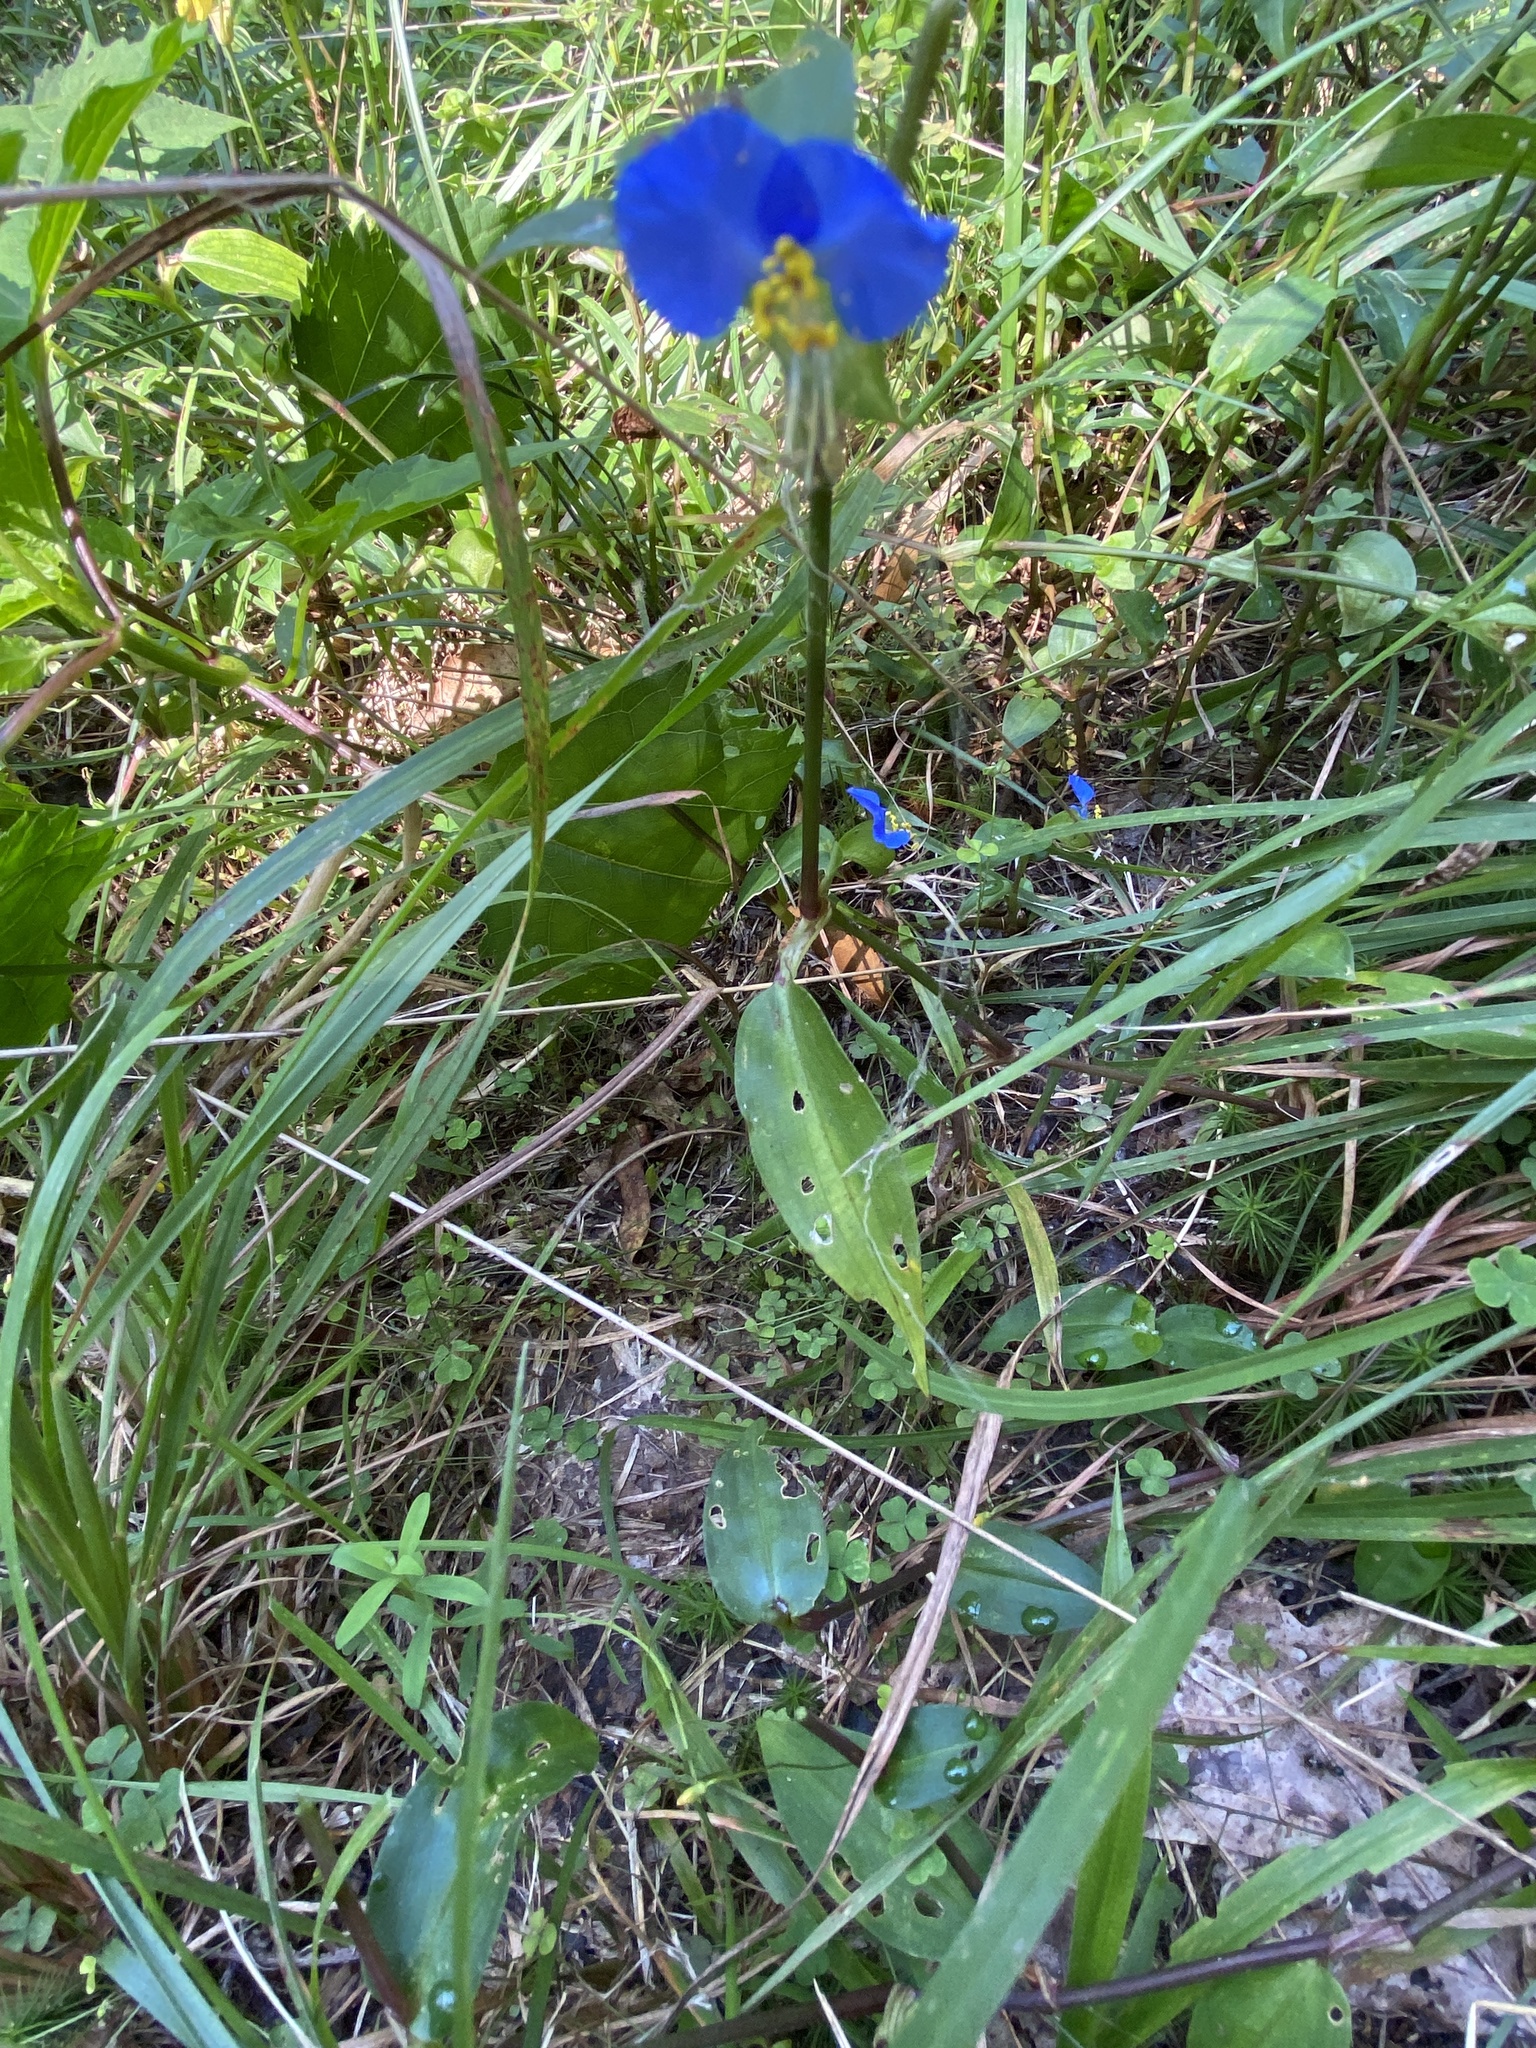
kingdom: Plantae
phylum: Tracheophyta
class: Liliopsida
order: Commelinales
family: Commelinaceae
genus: Commelina
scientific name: Commelina communis
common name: Asiatic dayflower
